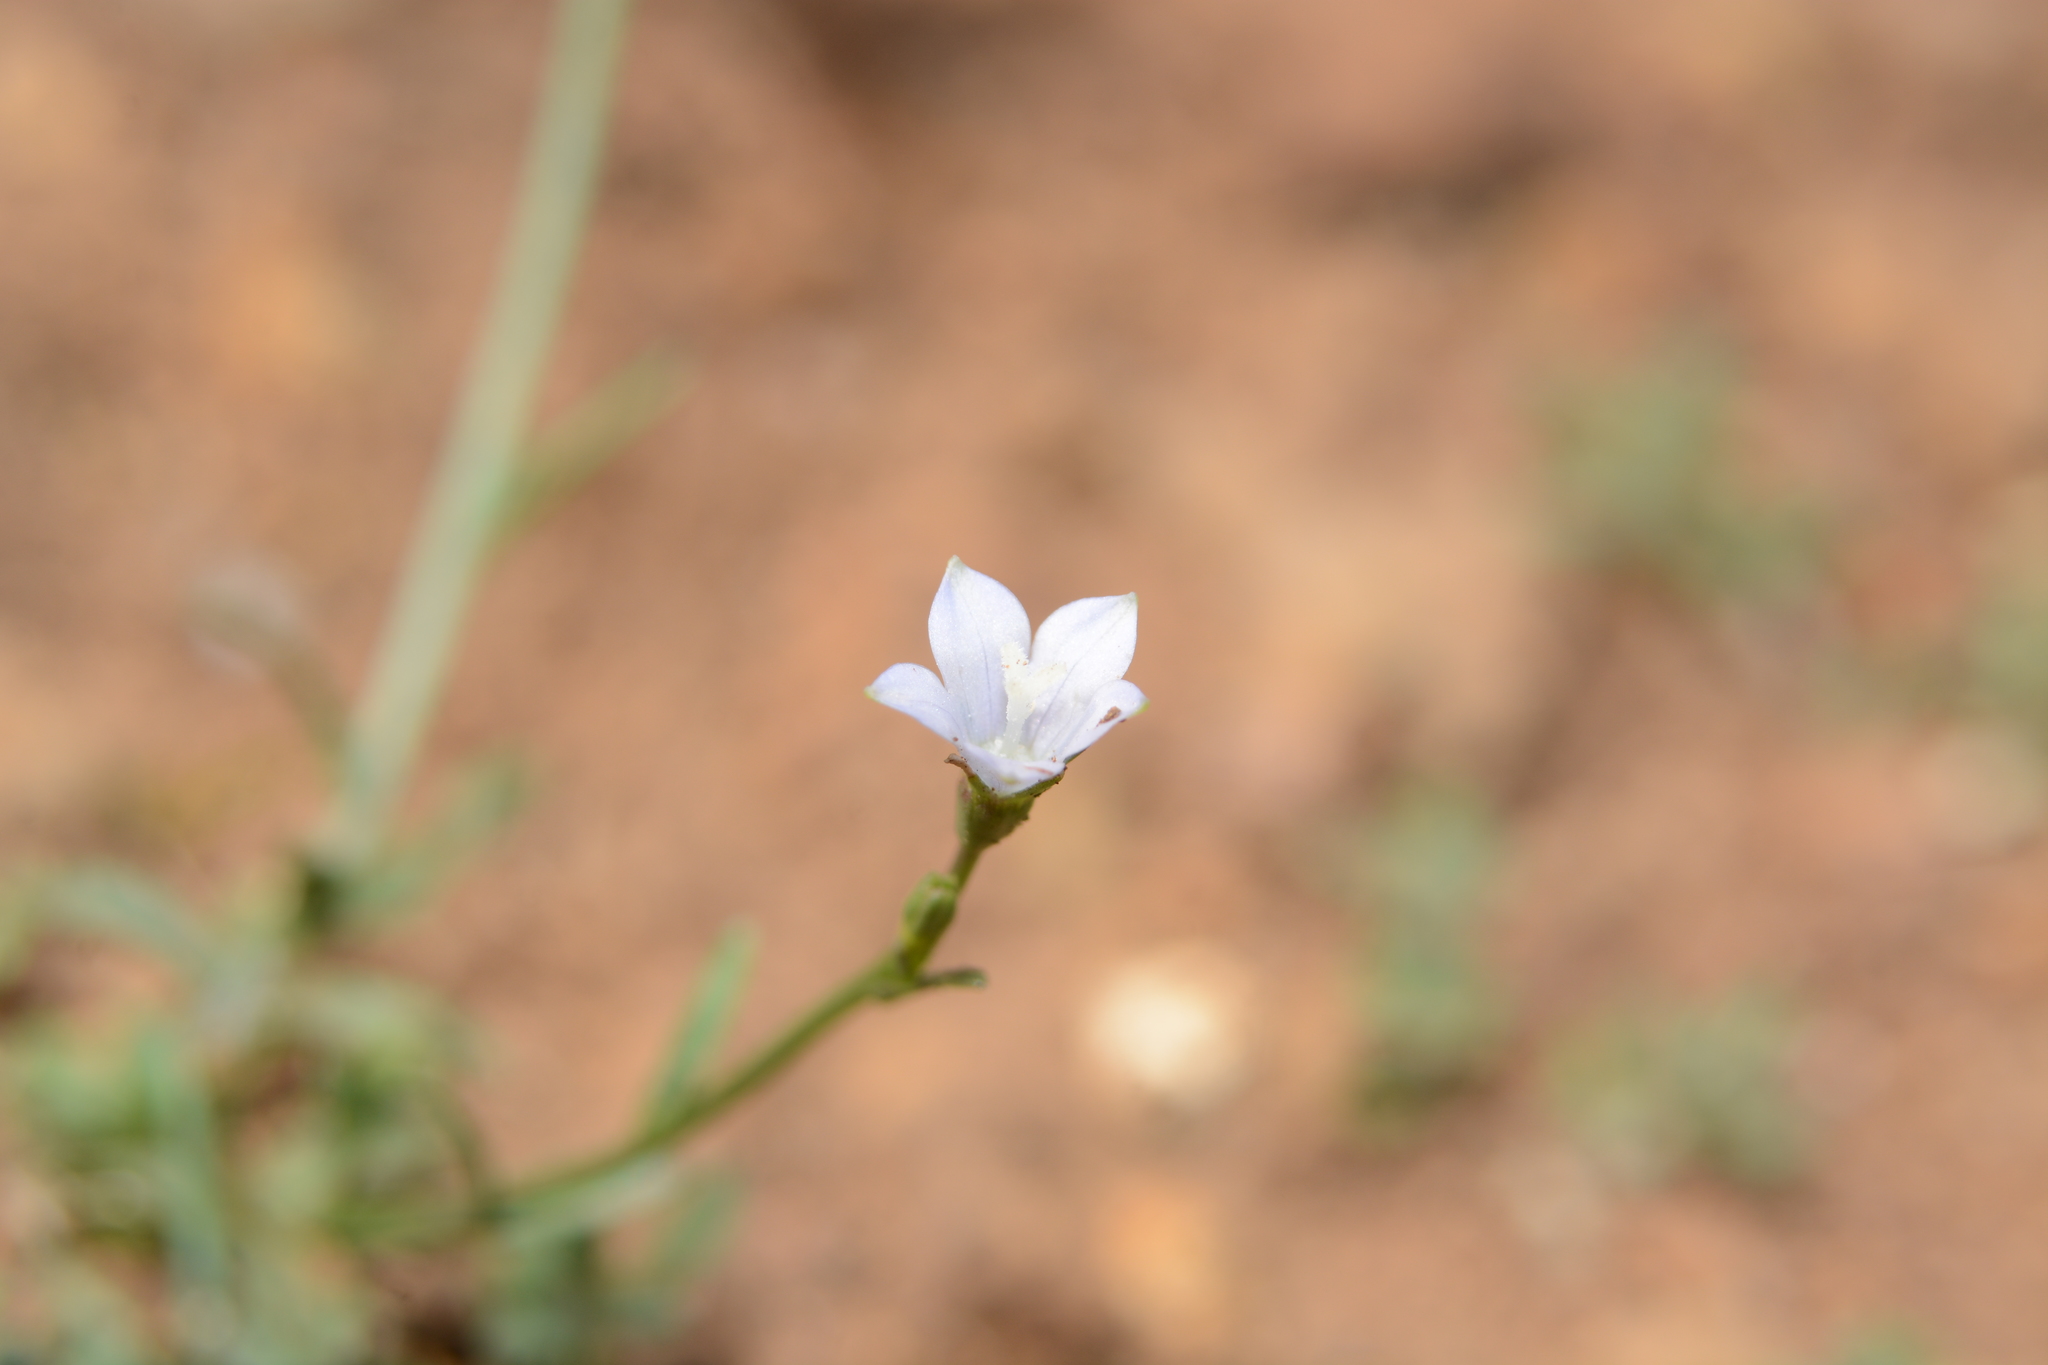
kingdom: Plantae
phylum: Tracheophyta
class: Magnoliopsida
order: Asterales
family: Campanulaceae
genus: Wahlenbergia
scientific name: Wahlenbergia marginata
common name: Southern rockbell
